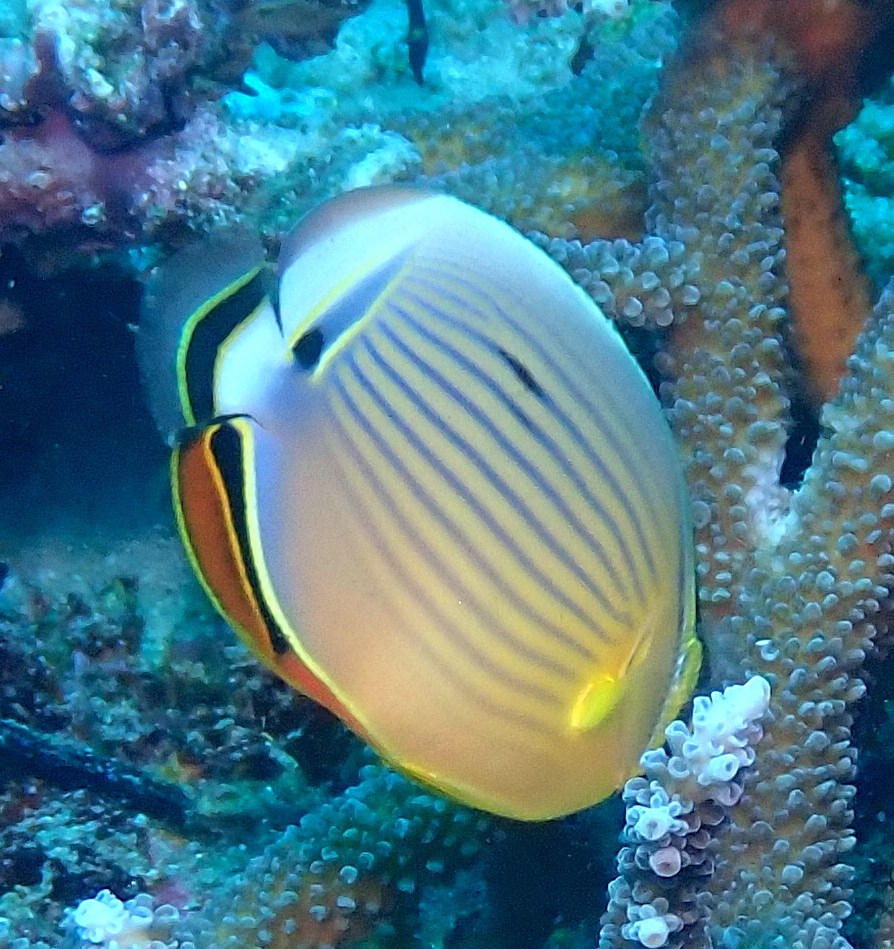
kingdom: Animalia
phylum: Chordata
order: Perciformes
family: Chaetodontidae
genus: Chaetodon
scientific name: Chaetodon lunulatus
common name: Redfin butterflyfish
